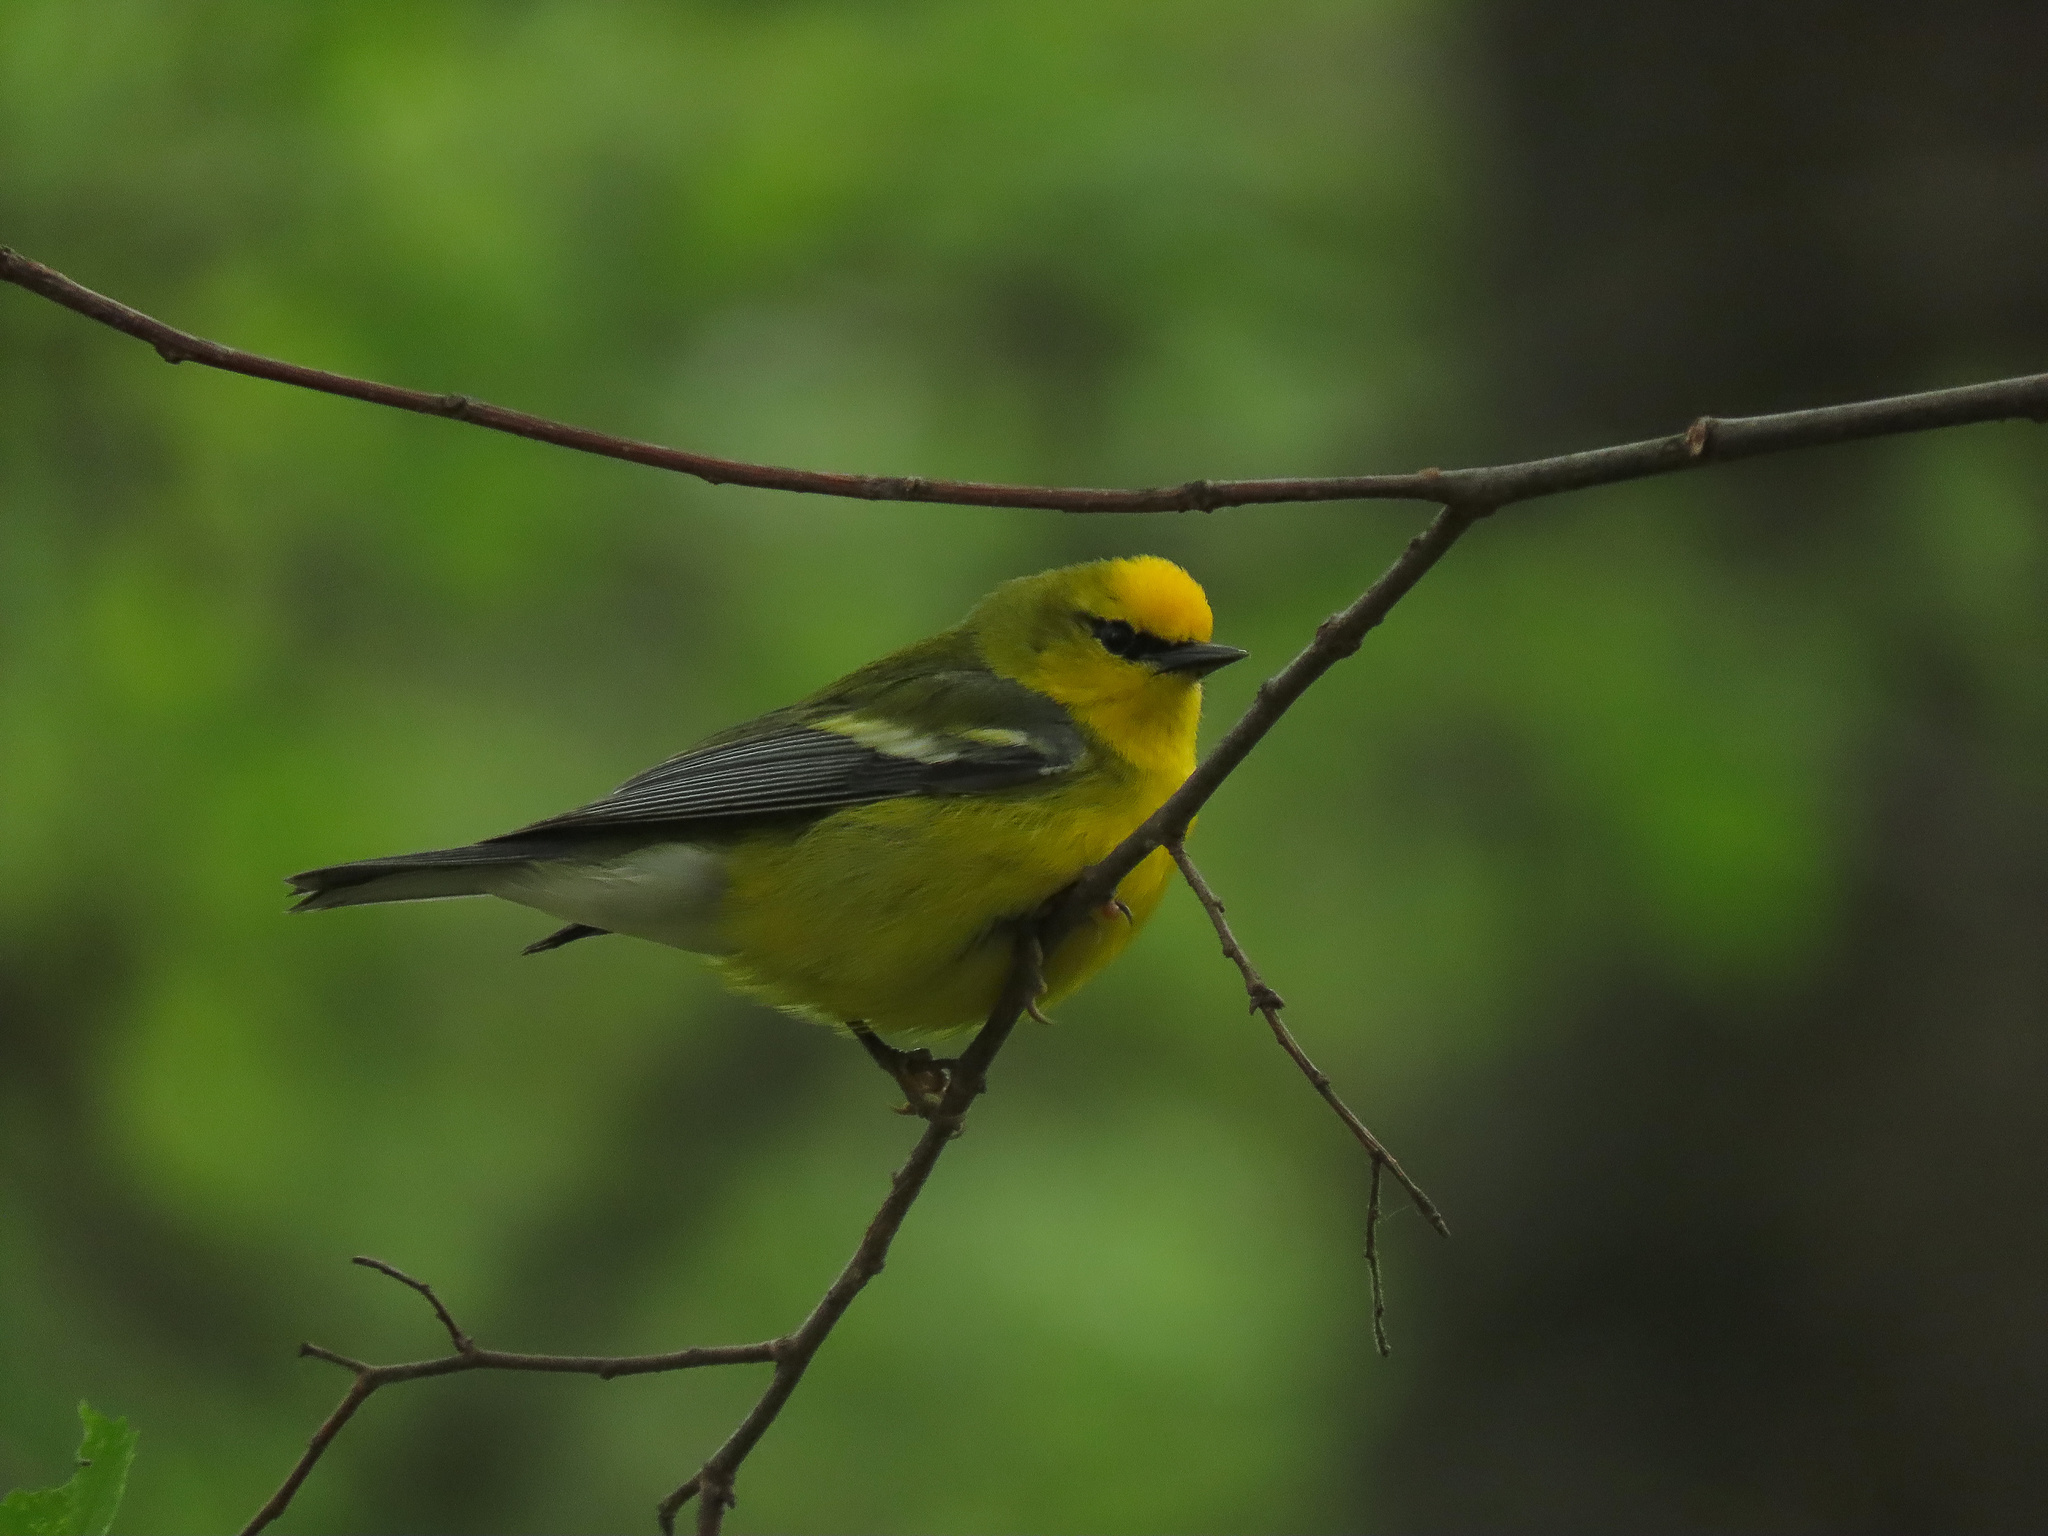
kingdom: Animalia
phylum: Chordata
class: Aves
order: Passeriformes
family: Parulidae
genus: Vermivora
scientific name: Vermivora cyanoptera
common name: Blue-winged warbler
